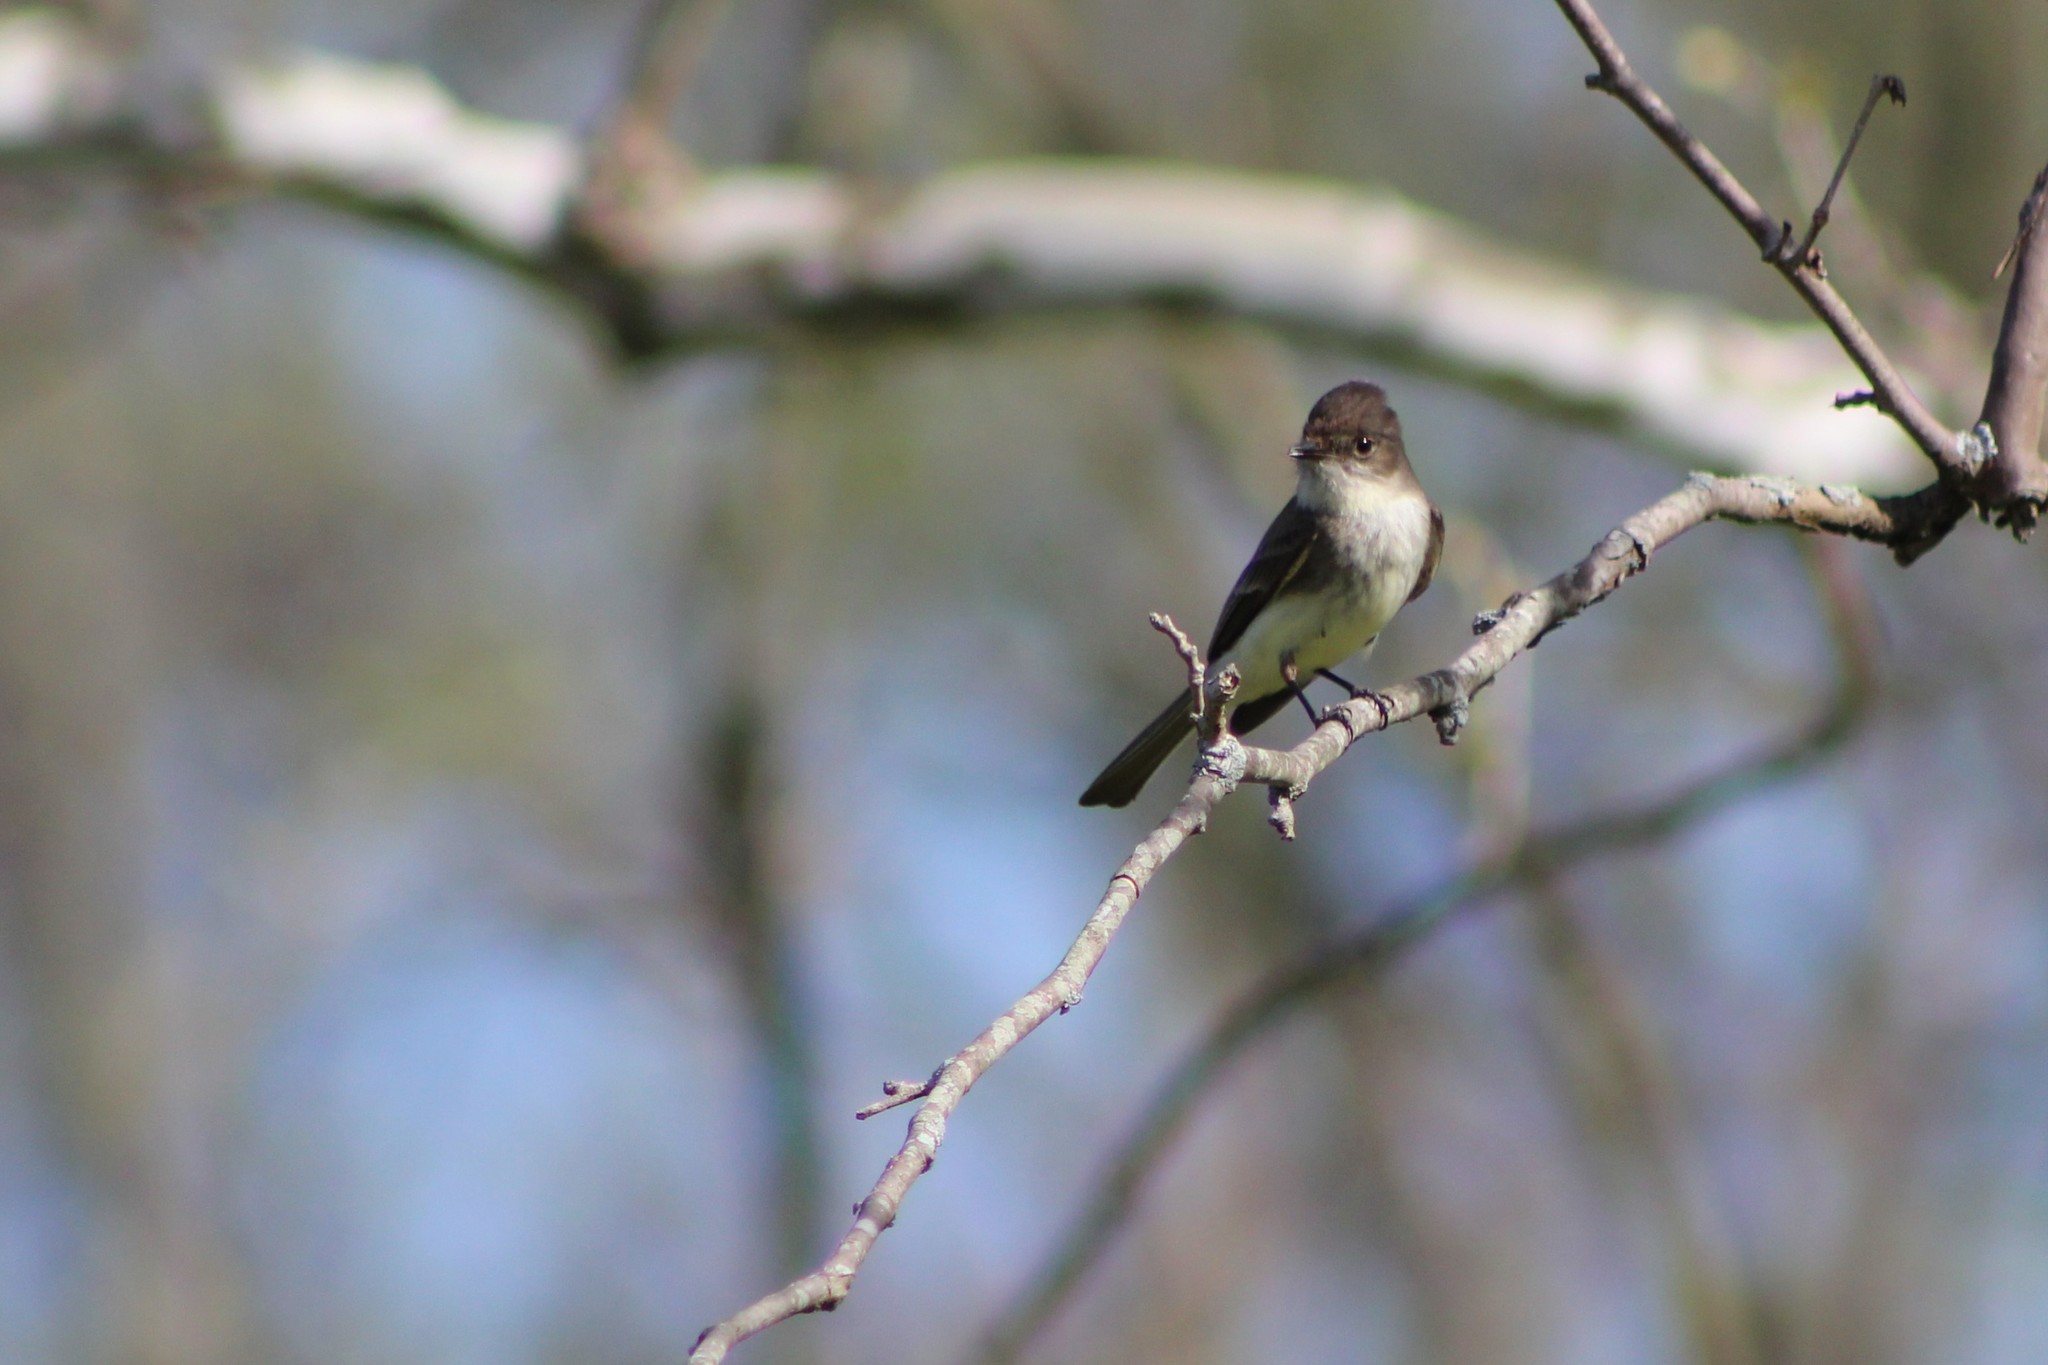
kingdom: Animalia
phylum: Chordata
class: Aves
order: Passeriformes
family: Tyrannidae
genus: Sayornis
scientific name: Sayornis phoebe
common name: Eastern phoebe
